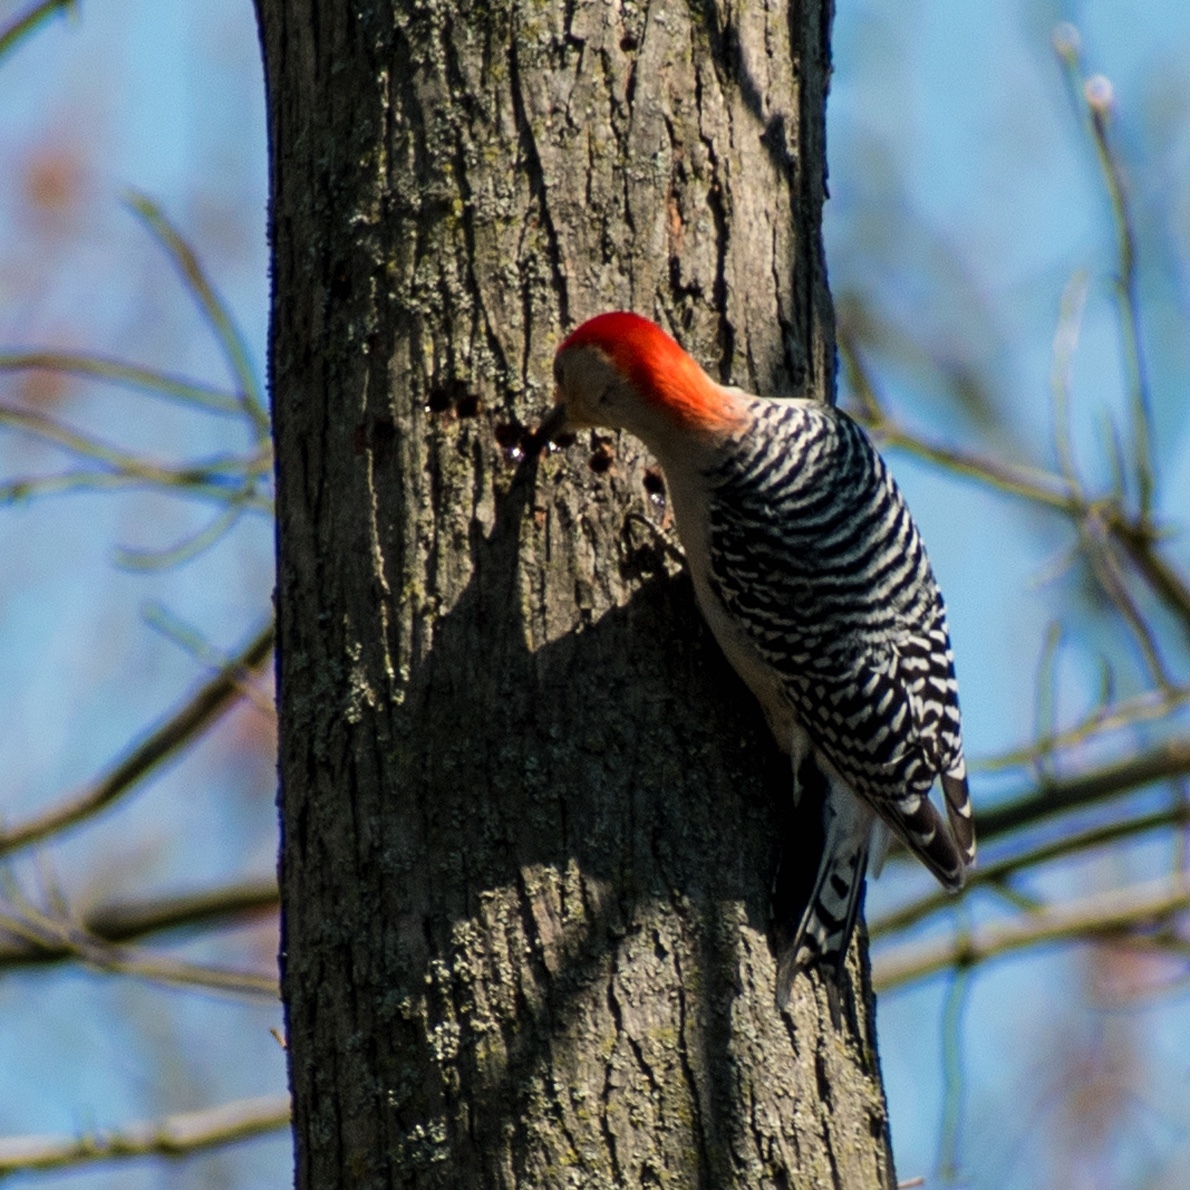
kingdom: Animalia
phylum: Chordata
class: Aves
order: Piciformes
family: Picidae
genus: Melanerpes
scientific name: Melanerpes carolinus
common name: Red-bellied woodpecker
